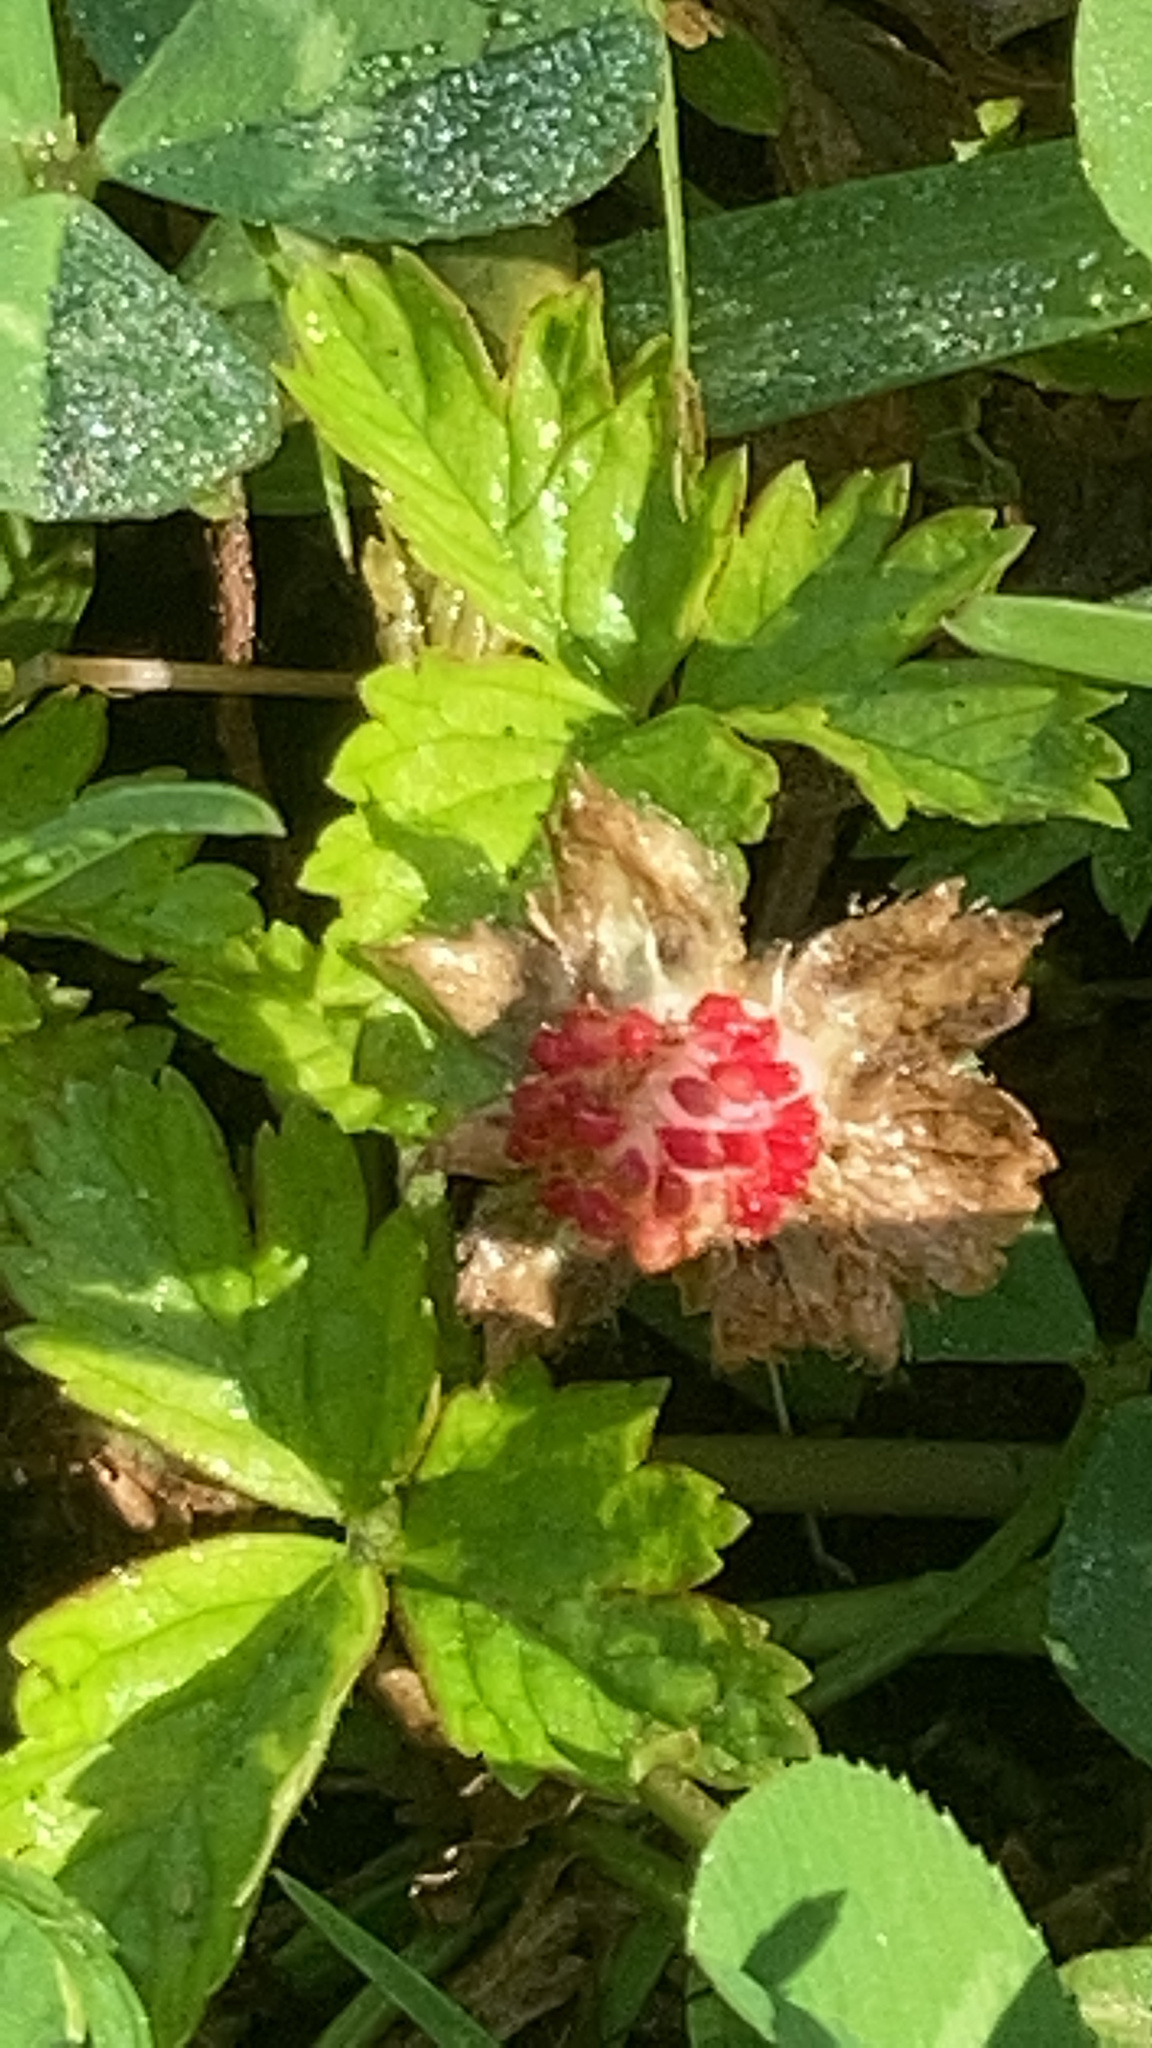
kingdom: Plantae
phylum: Tracheophyta
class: Magnoliopsida
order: Rosales
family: Rosaceae
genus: Potentilla
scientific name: Potentilla indica
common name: Yellow-flowered strawberry
